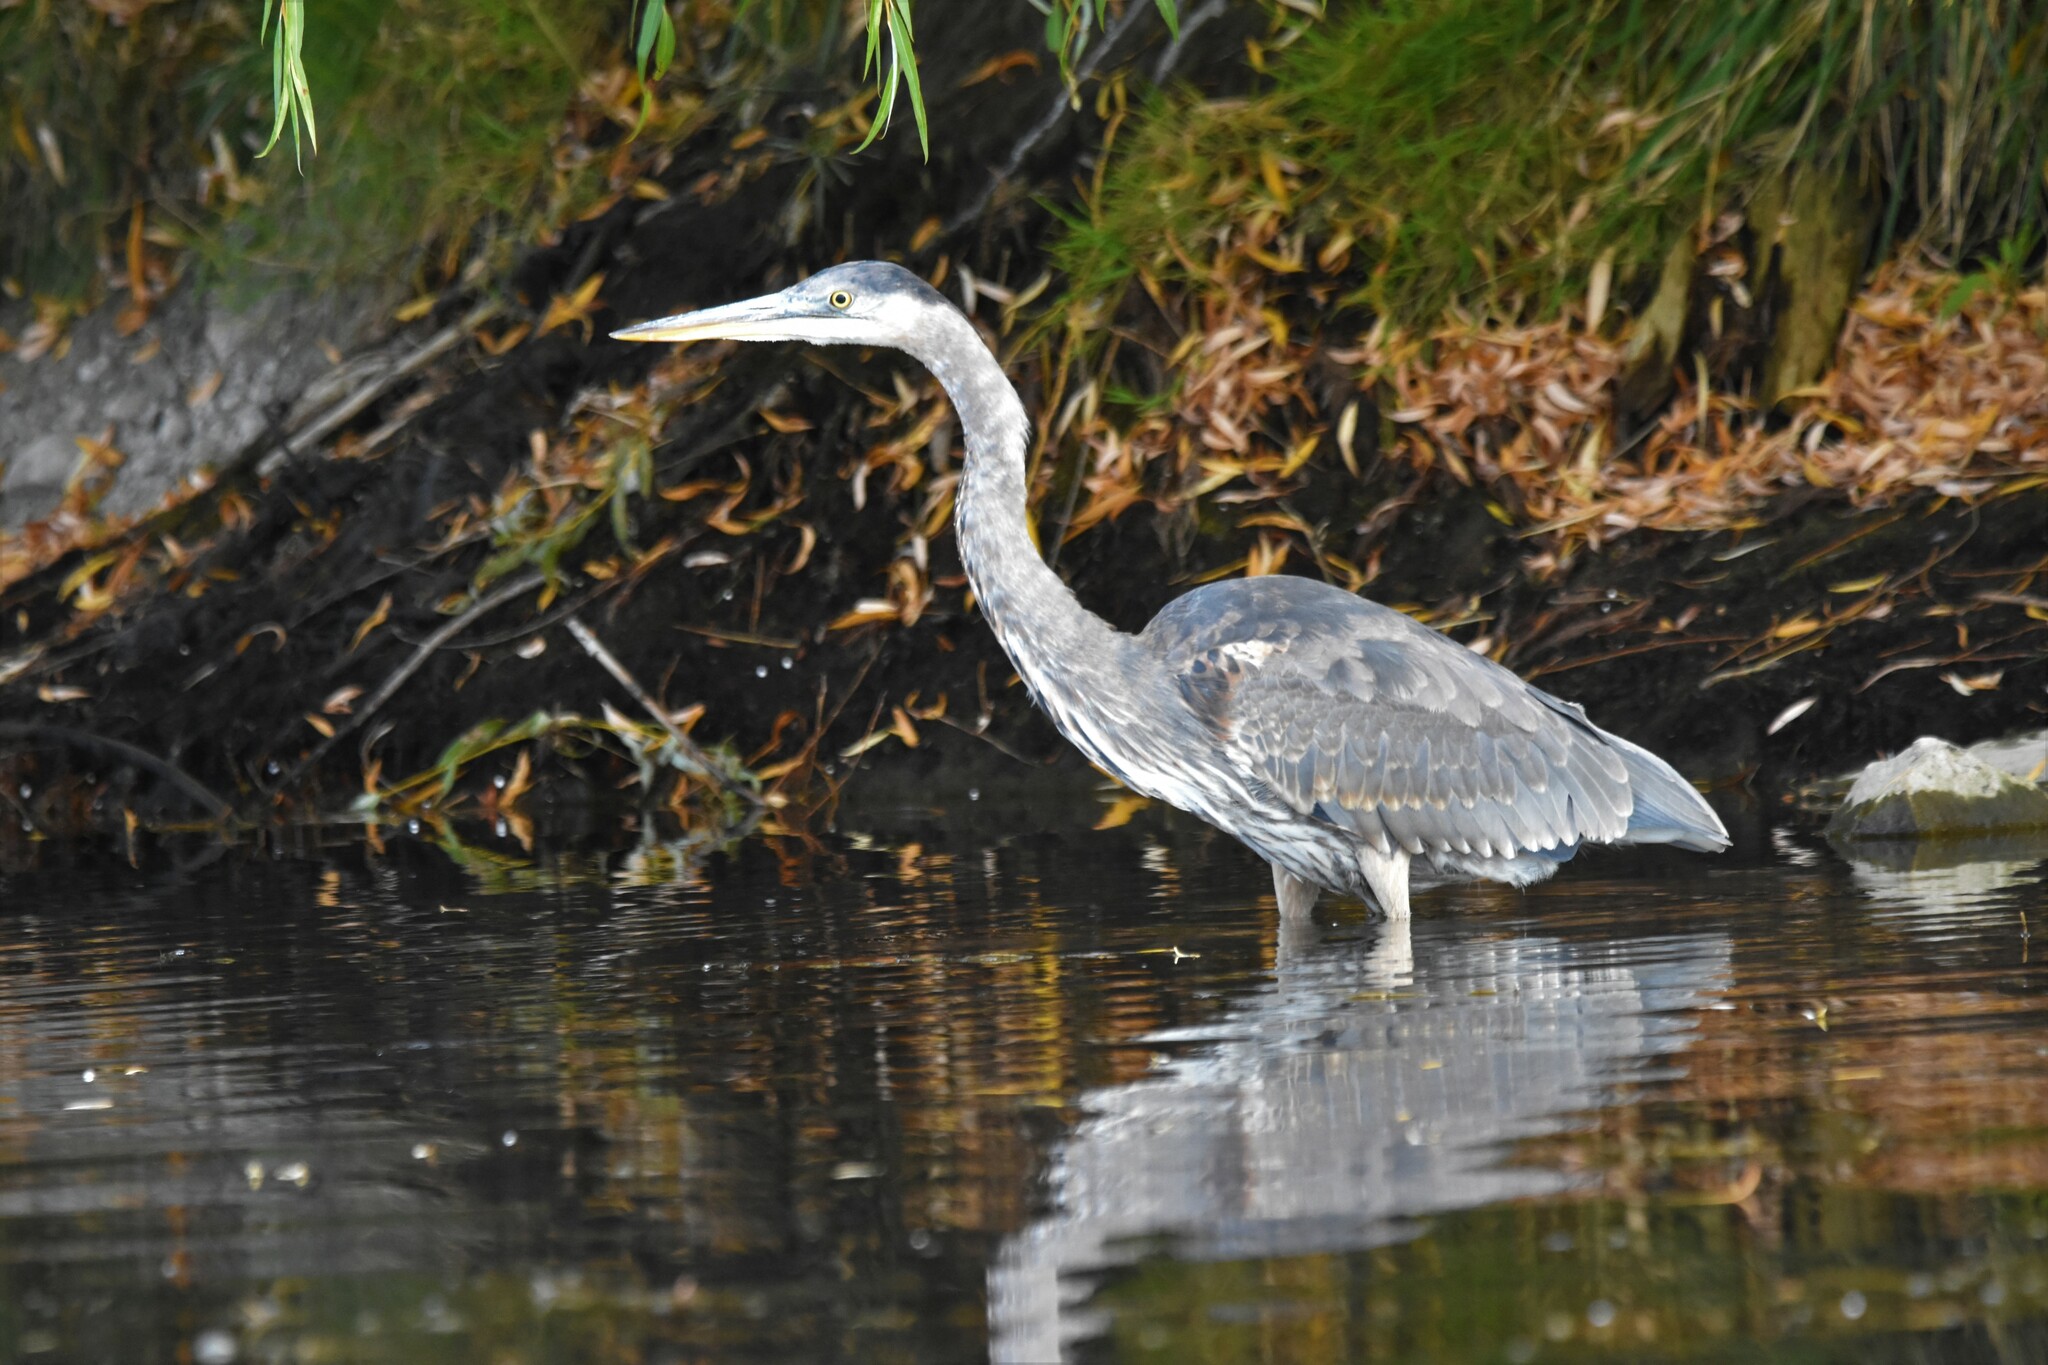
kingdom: Animalia
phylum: Chordata
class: Aves
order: Pelecaniformes
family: Ardeidae
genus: Ardea
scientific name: Ardea herodias
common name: Great blue heron
